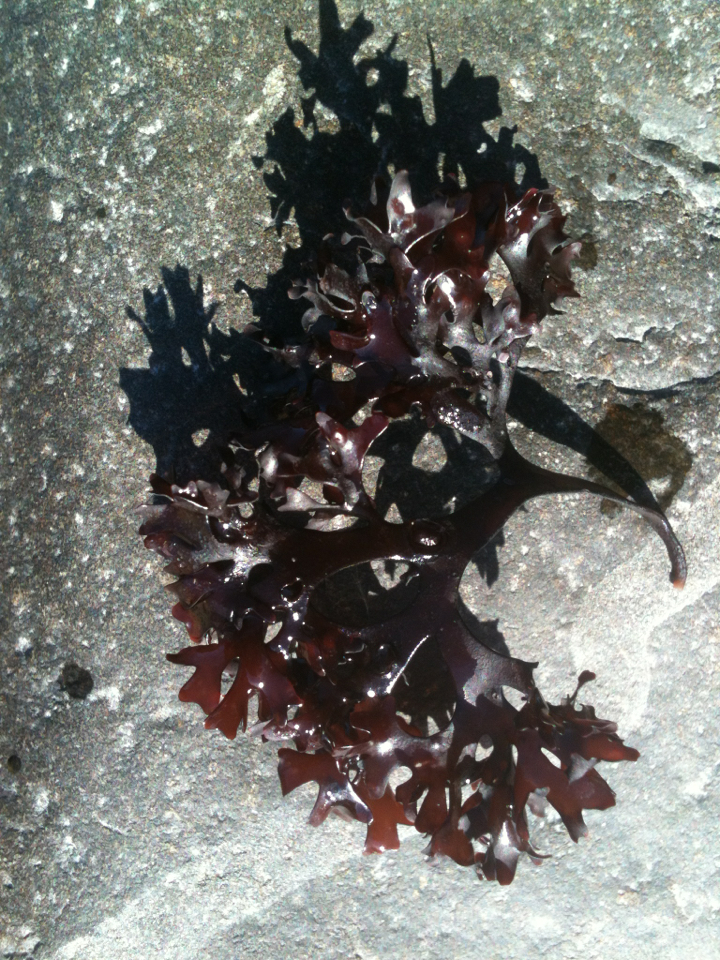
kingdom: Plantae
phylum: Rhodophyta
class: Florideophyceae
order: Gigartinales
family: Gigartinaceae
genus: Chondrus
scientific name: Chondrus crispus
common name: Carrageen
